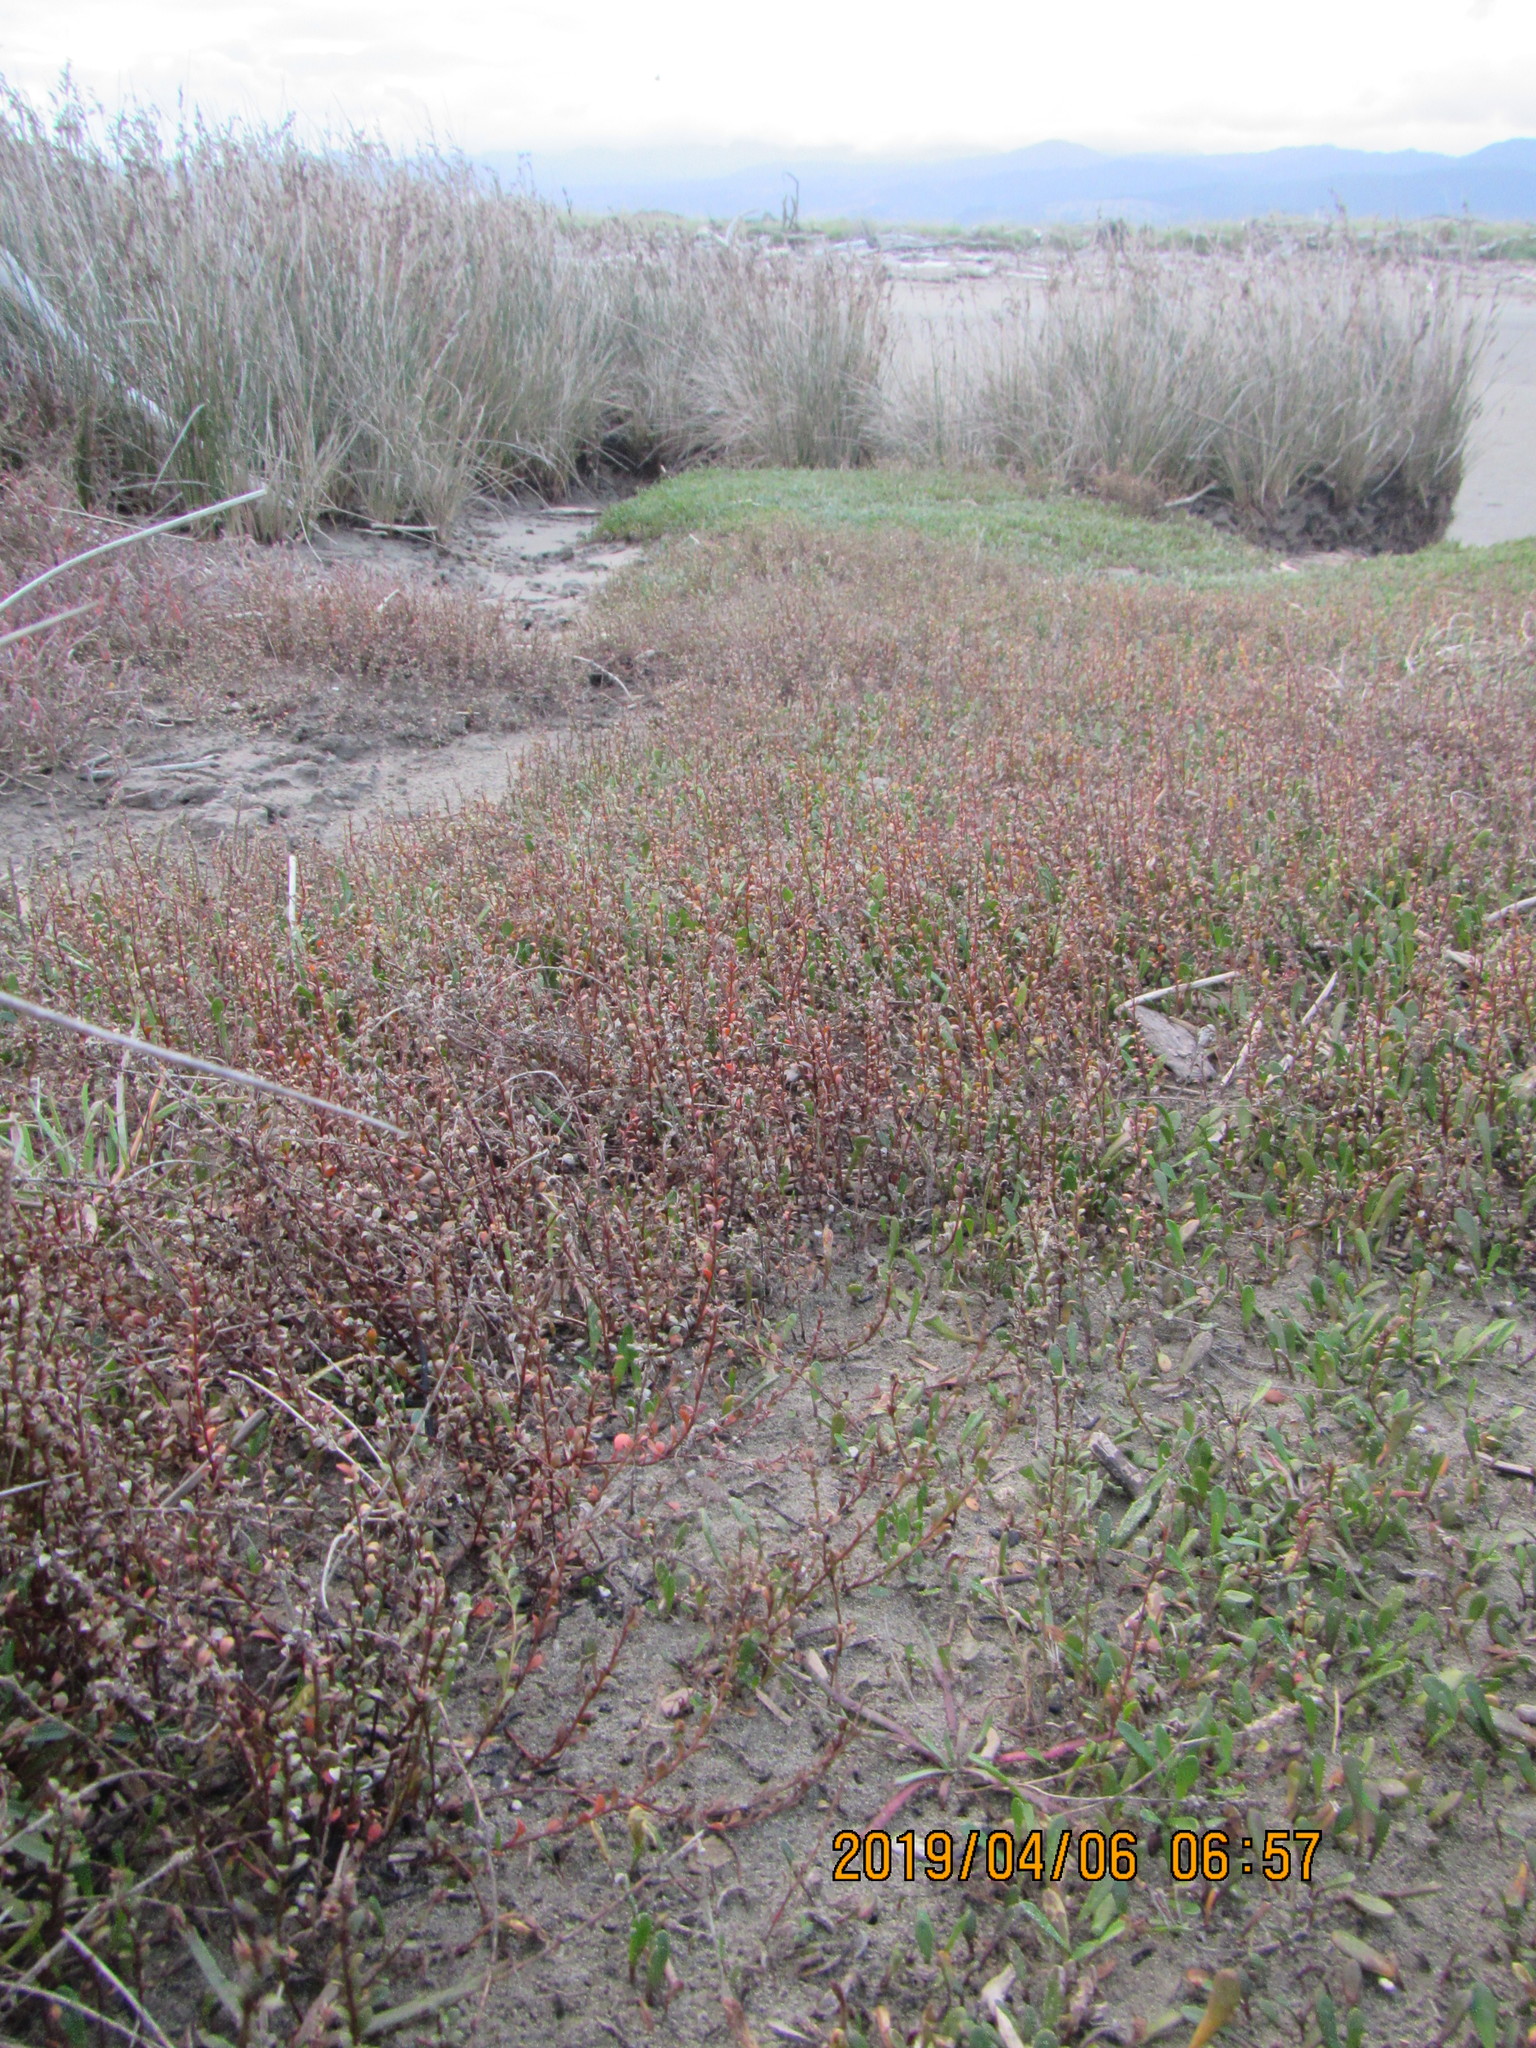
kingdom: Plantae
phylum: Tracheophyta
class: Magnoliopsida
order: Ericales
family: Primulaceae
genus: Samolus
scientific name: Samolus repens
